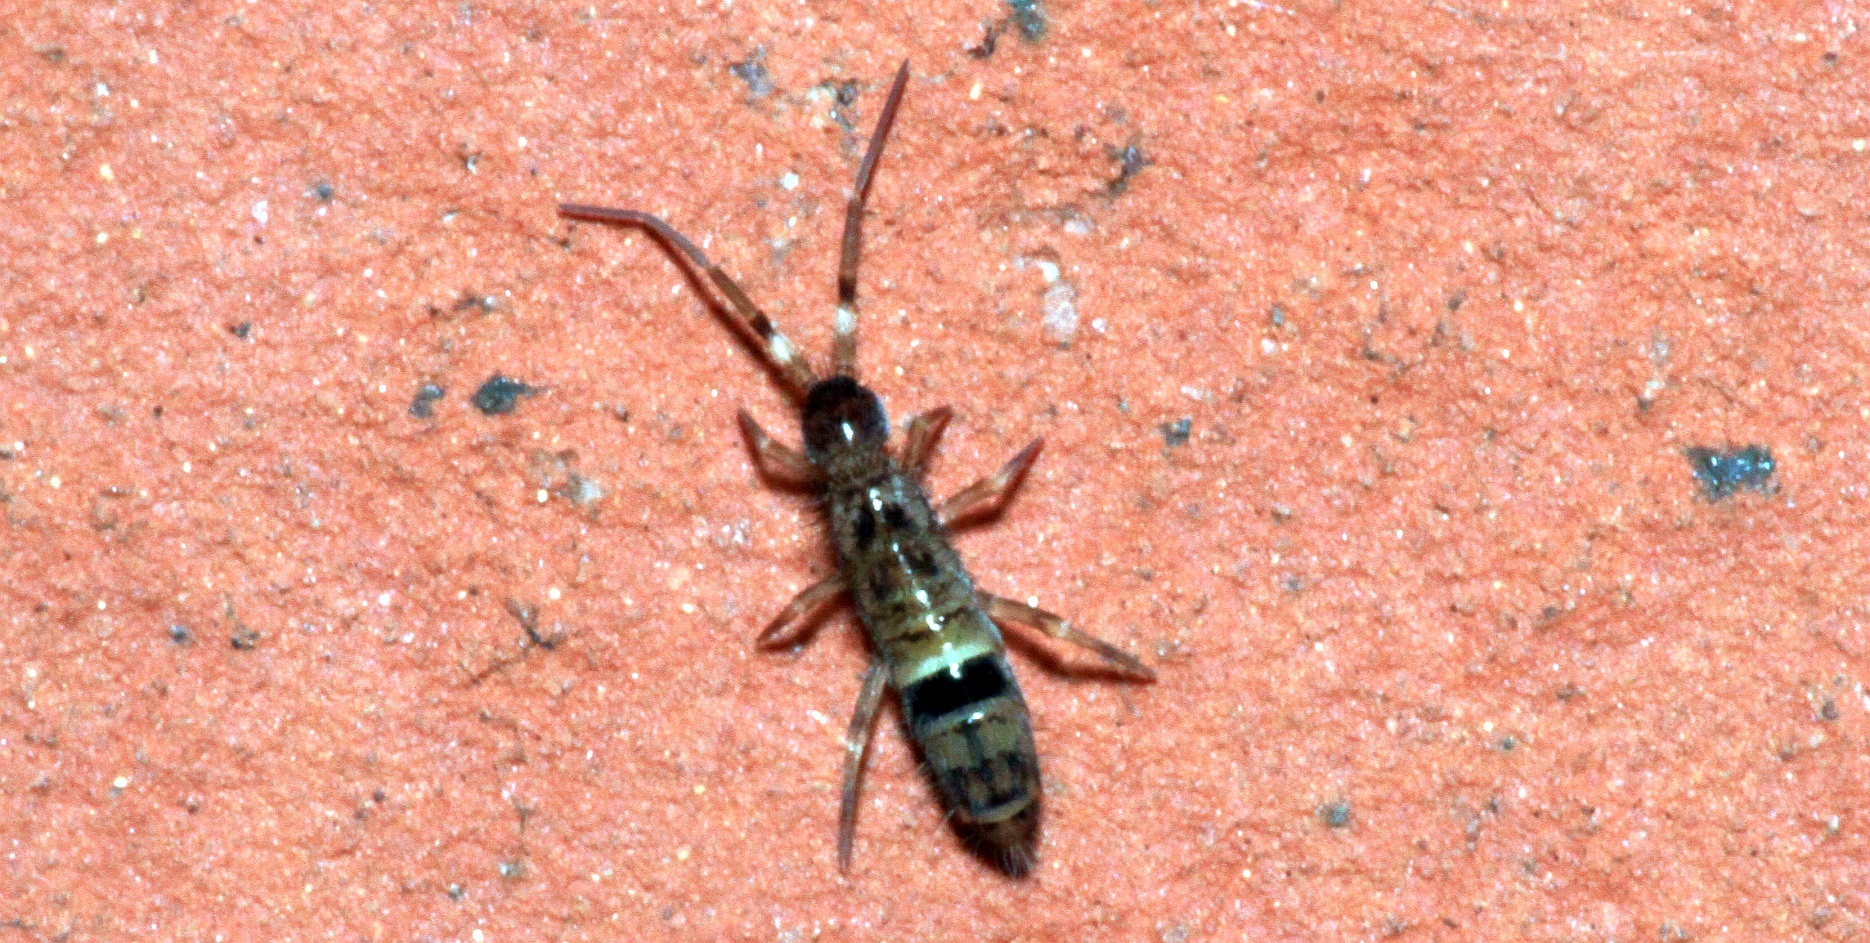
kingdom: Animalia
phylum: Arthropoda
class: Collembola
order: Entomobryomorpha
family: Orchesellidae
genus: Orchesella
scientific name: Orchesella cincta
